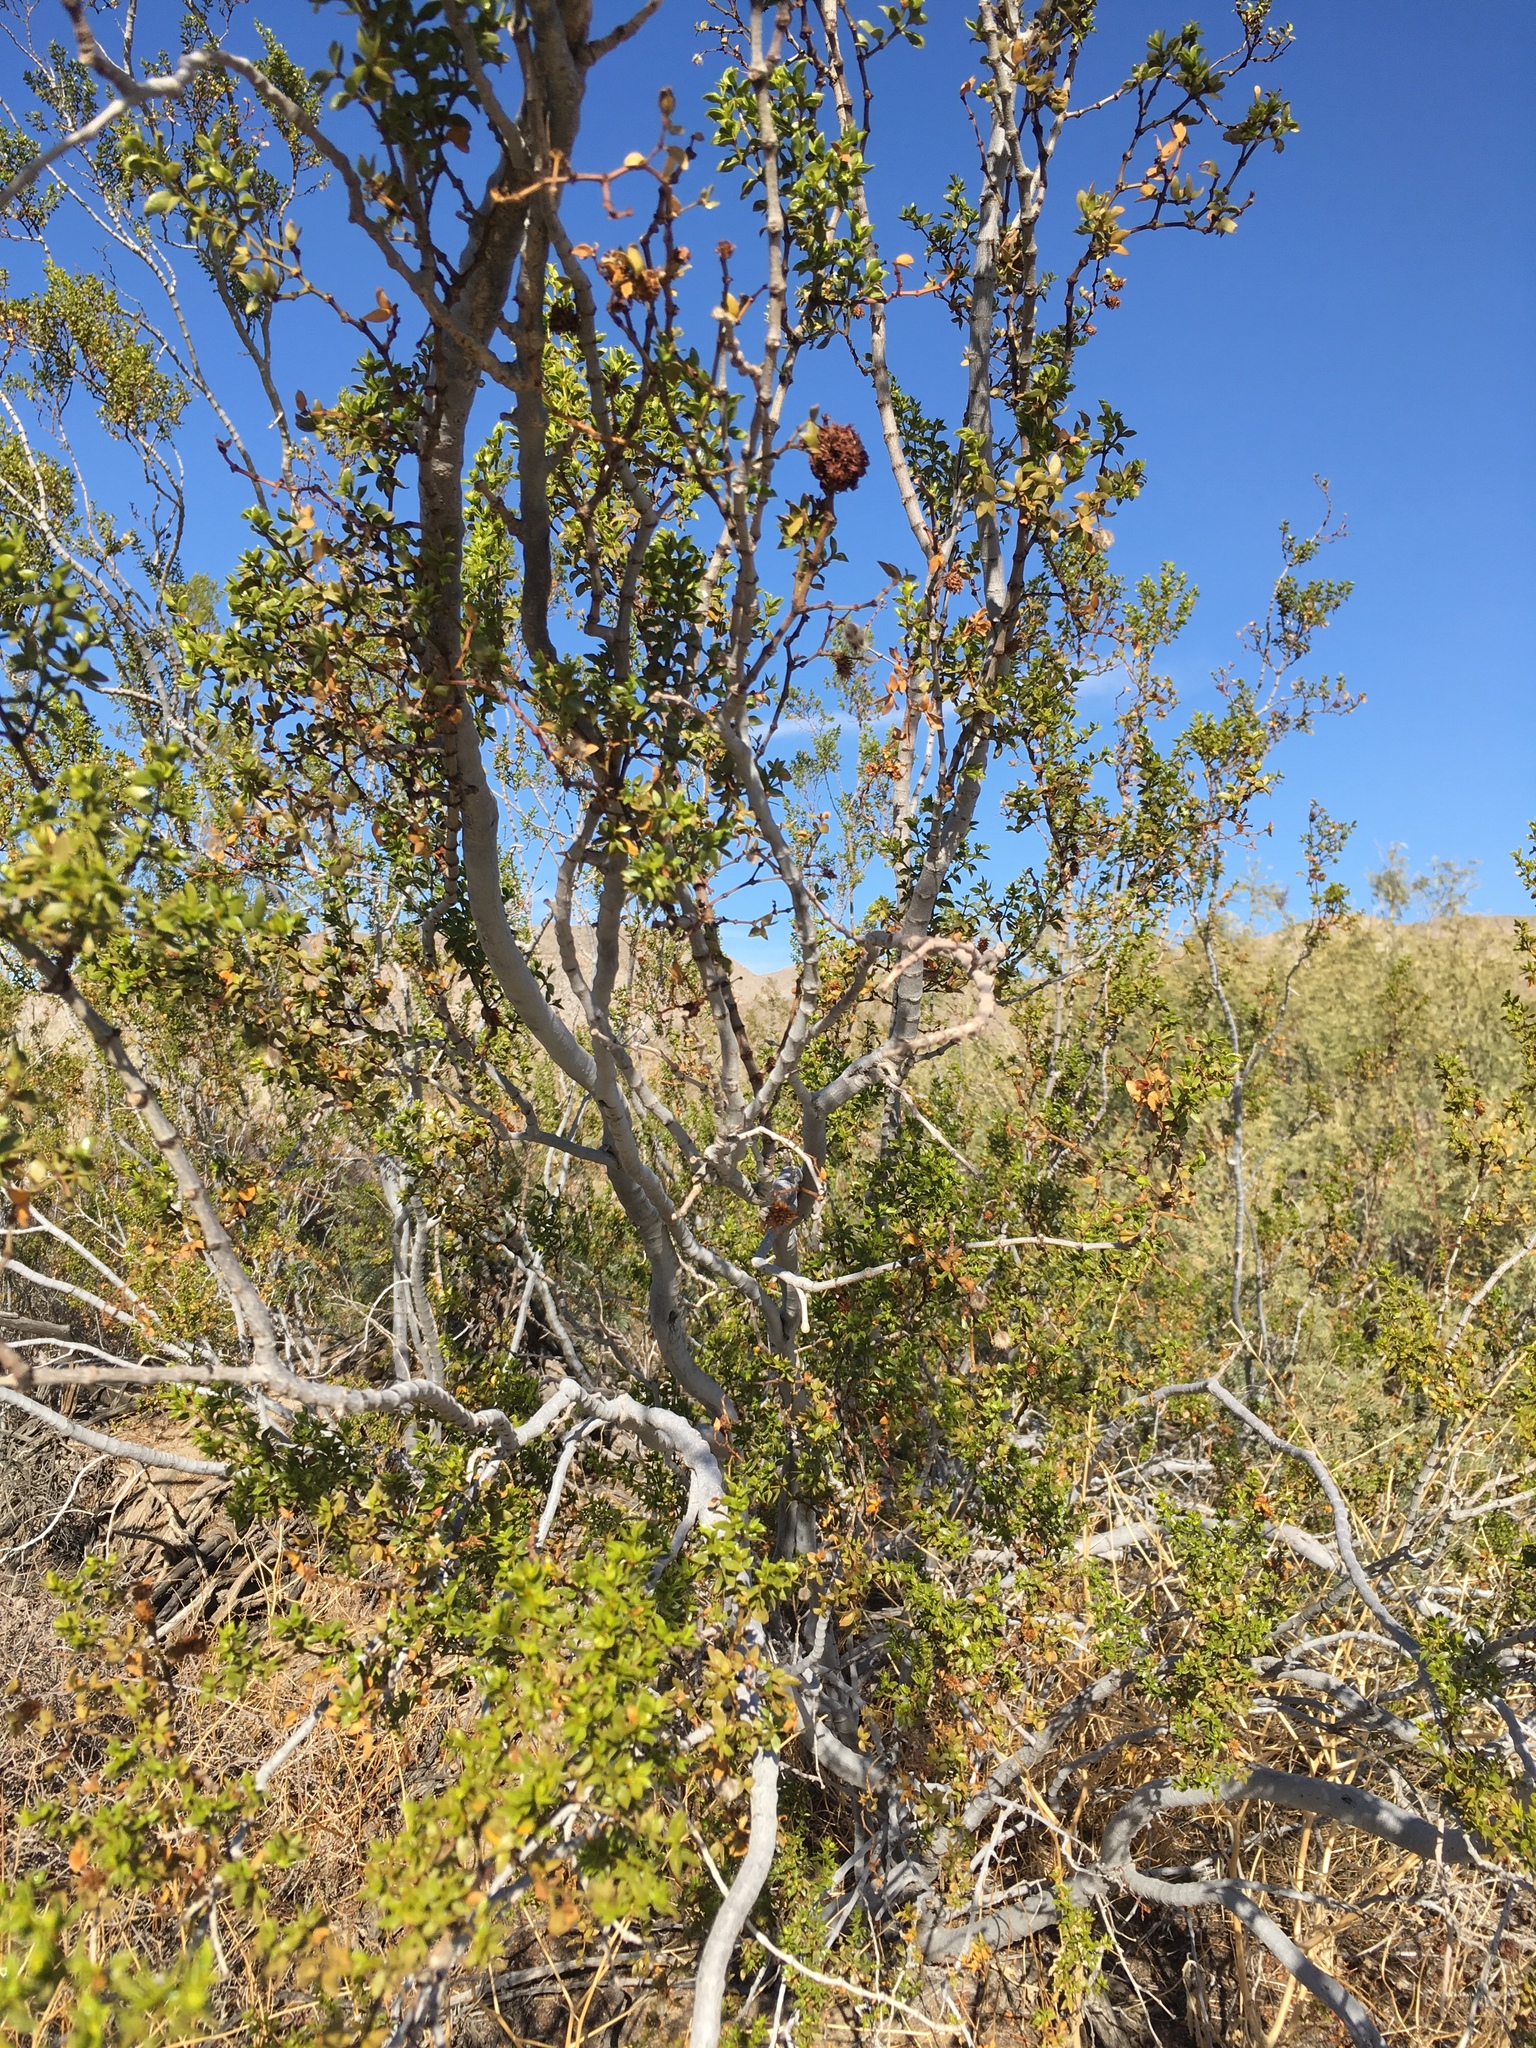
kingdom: Animalia
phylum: Arthropoda
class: Insecta
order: Diptera
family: Cecidomyiidae
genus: Asphondylia
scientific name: Asphondylia auripila
